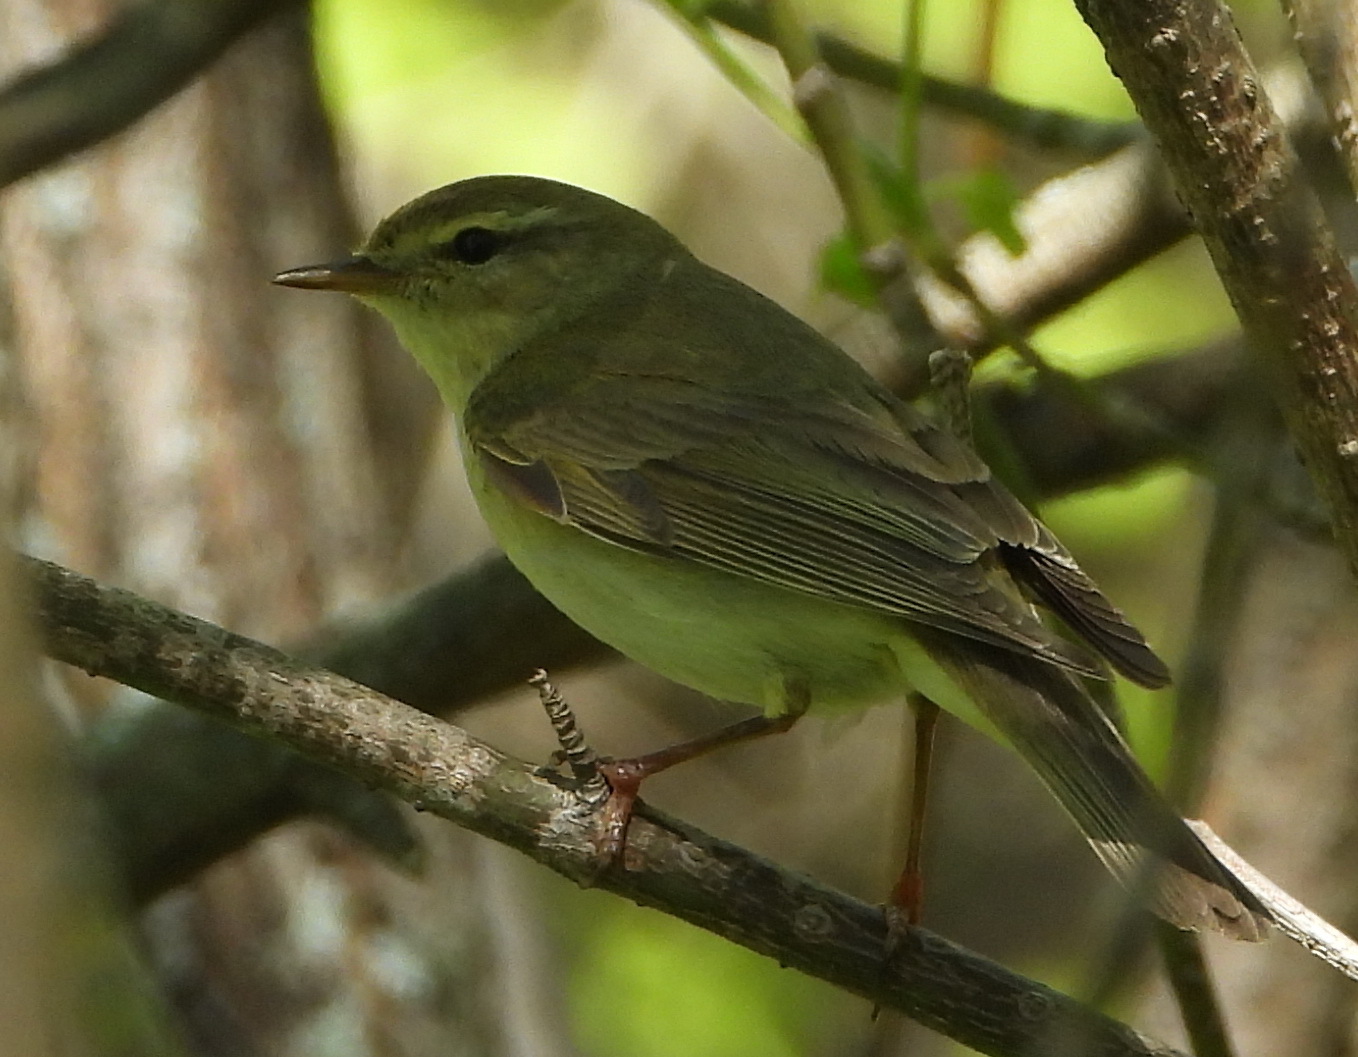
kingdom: Animalia
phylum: Chordata
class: Aves
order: Passeriformes
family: Phylloscopidae
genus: Phylloscopus
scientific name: Phylloscopus trochilus
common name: Willow warbler
